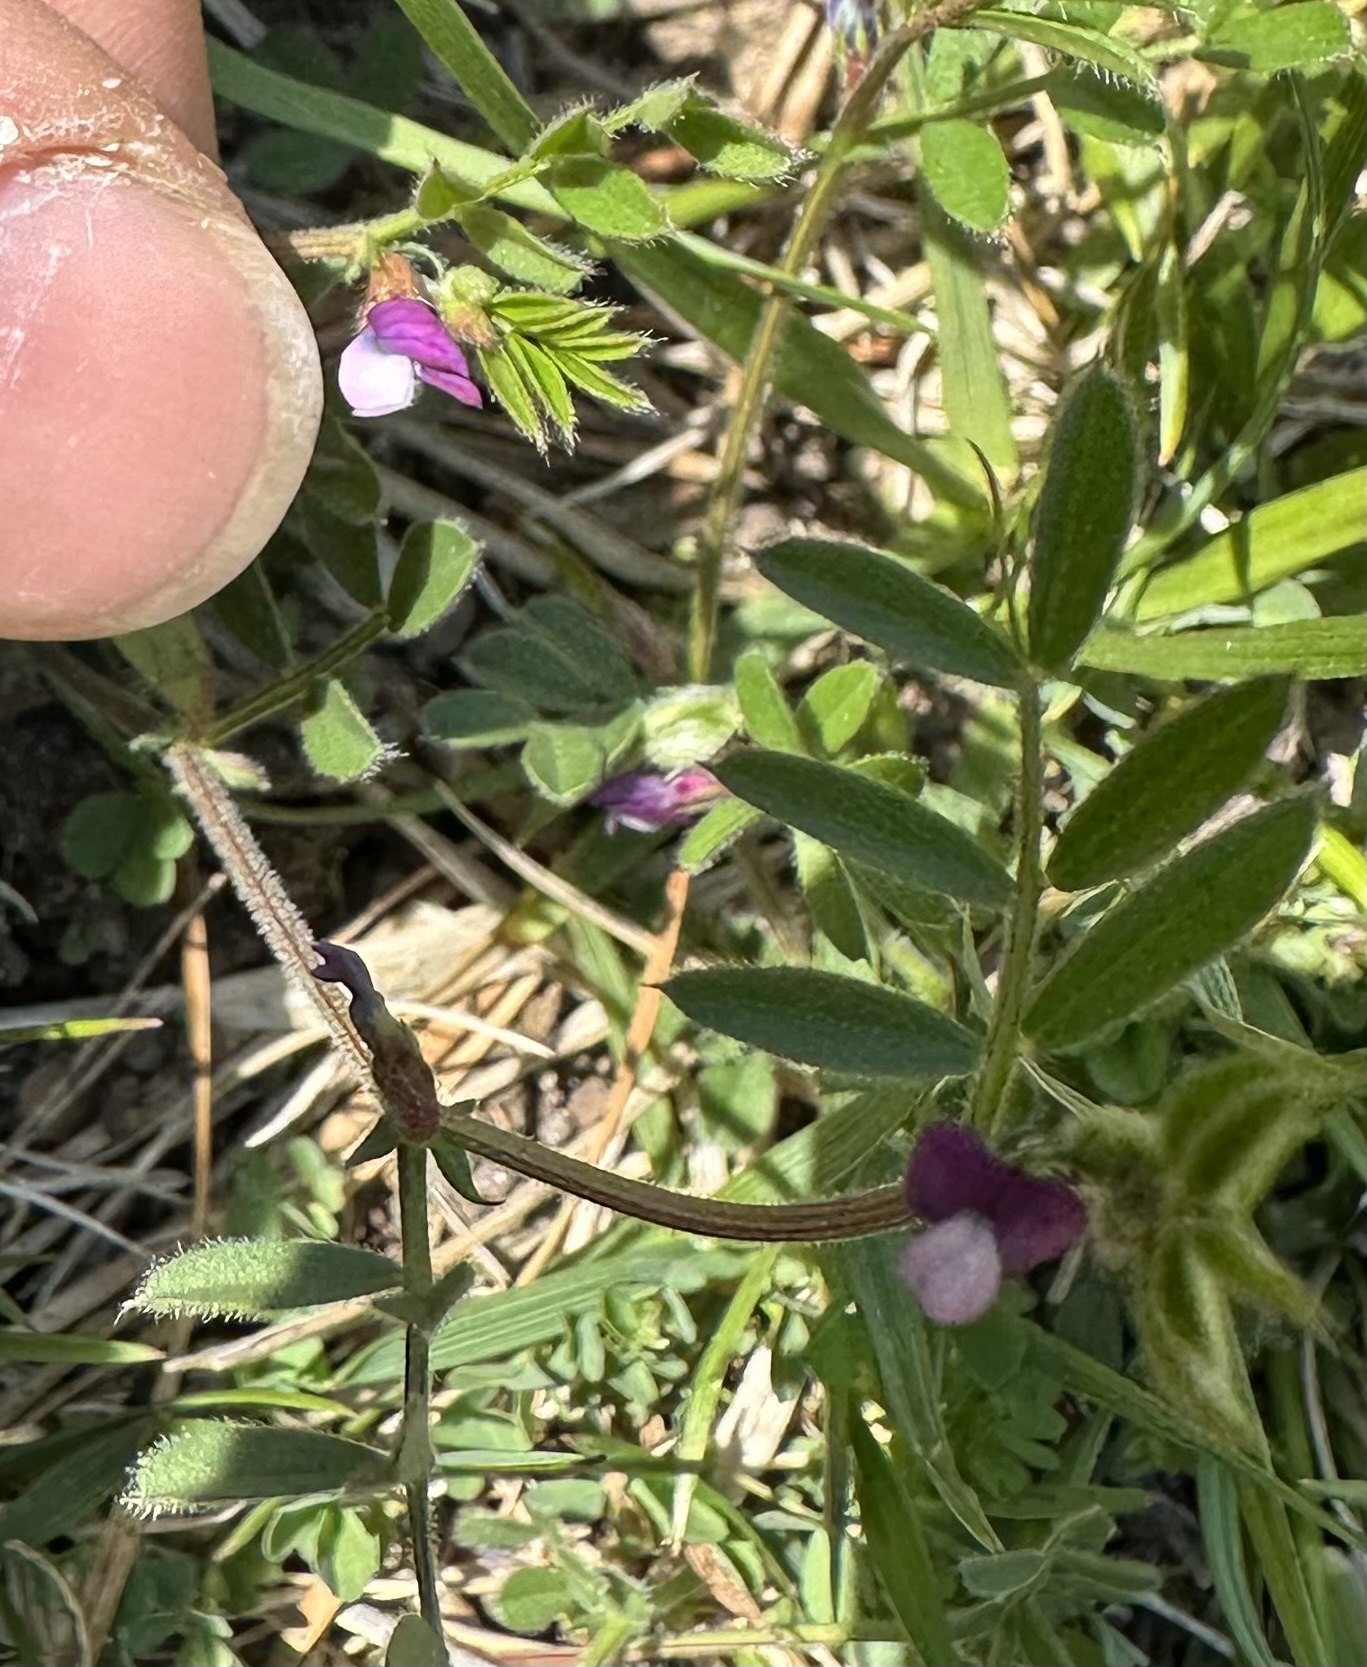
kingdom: Plantae
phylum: Tracheophyta
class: Magnoliopsida
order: Fabales
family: Fabaceae
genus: Vicia
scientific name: Vicia lathyroides
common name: Spring vetch
